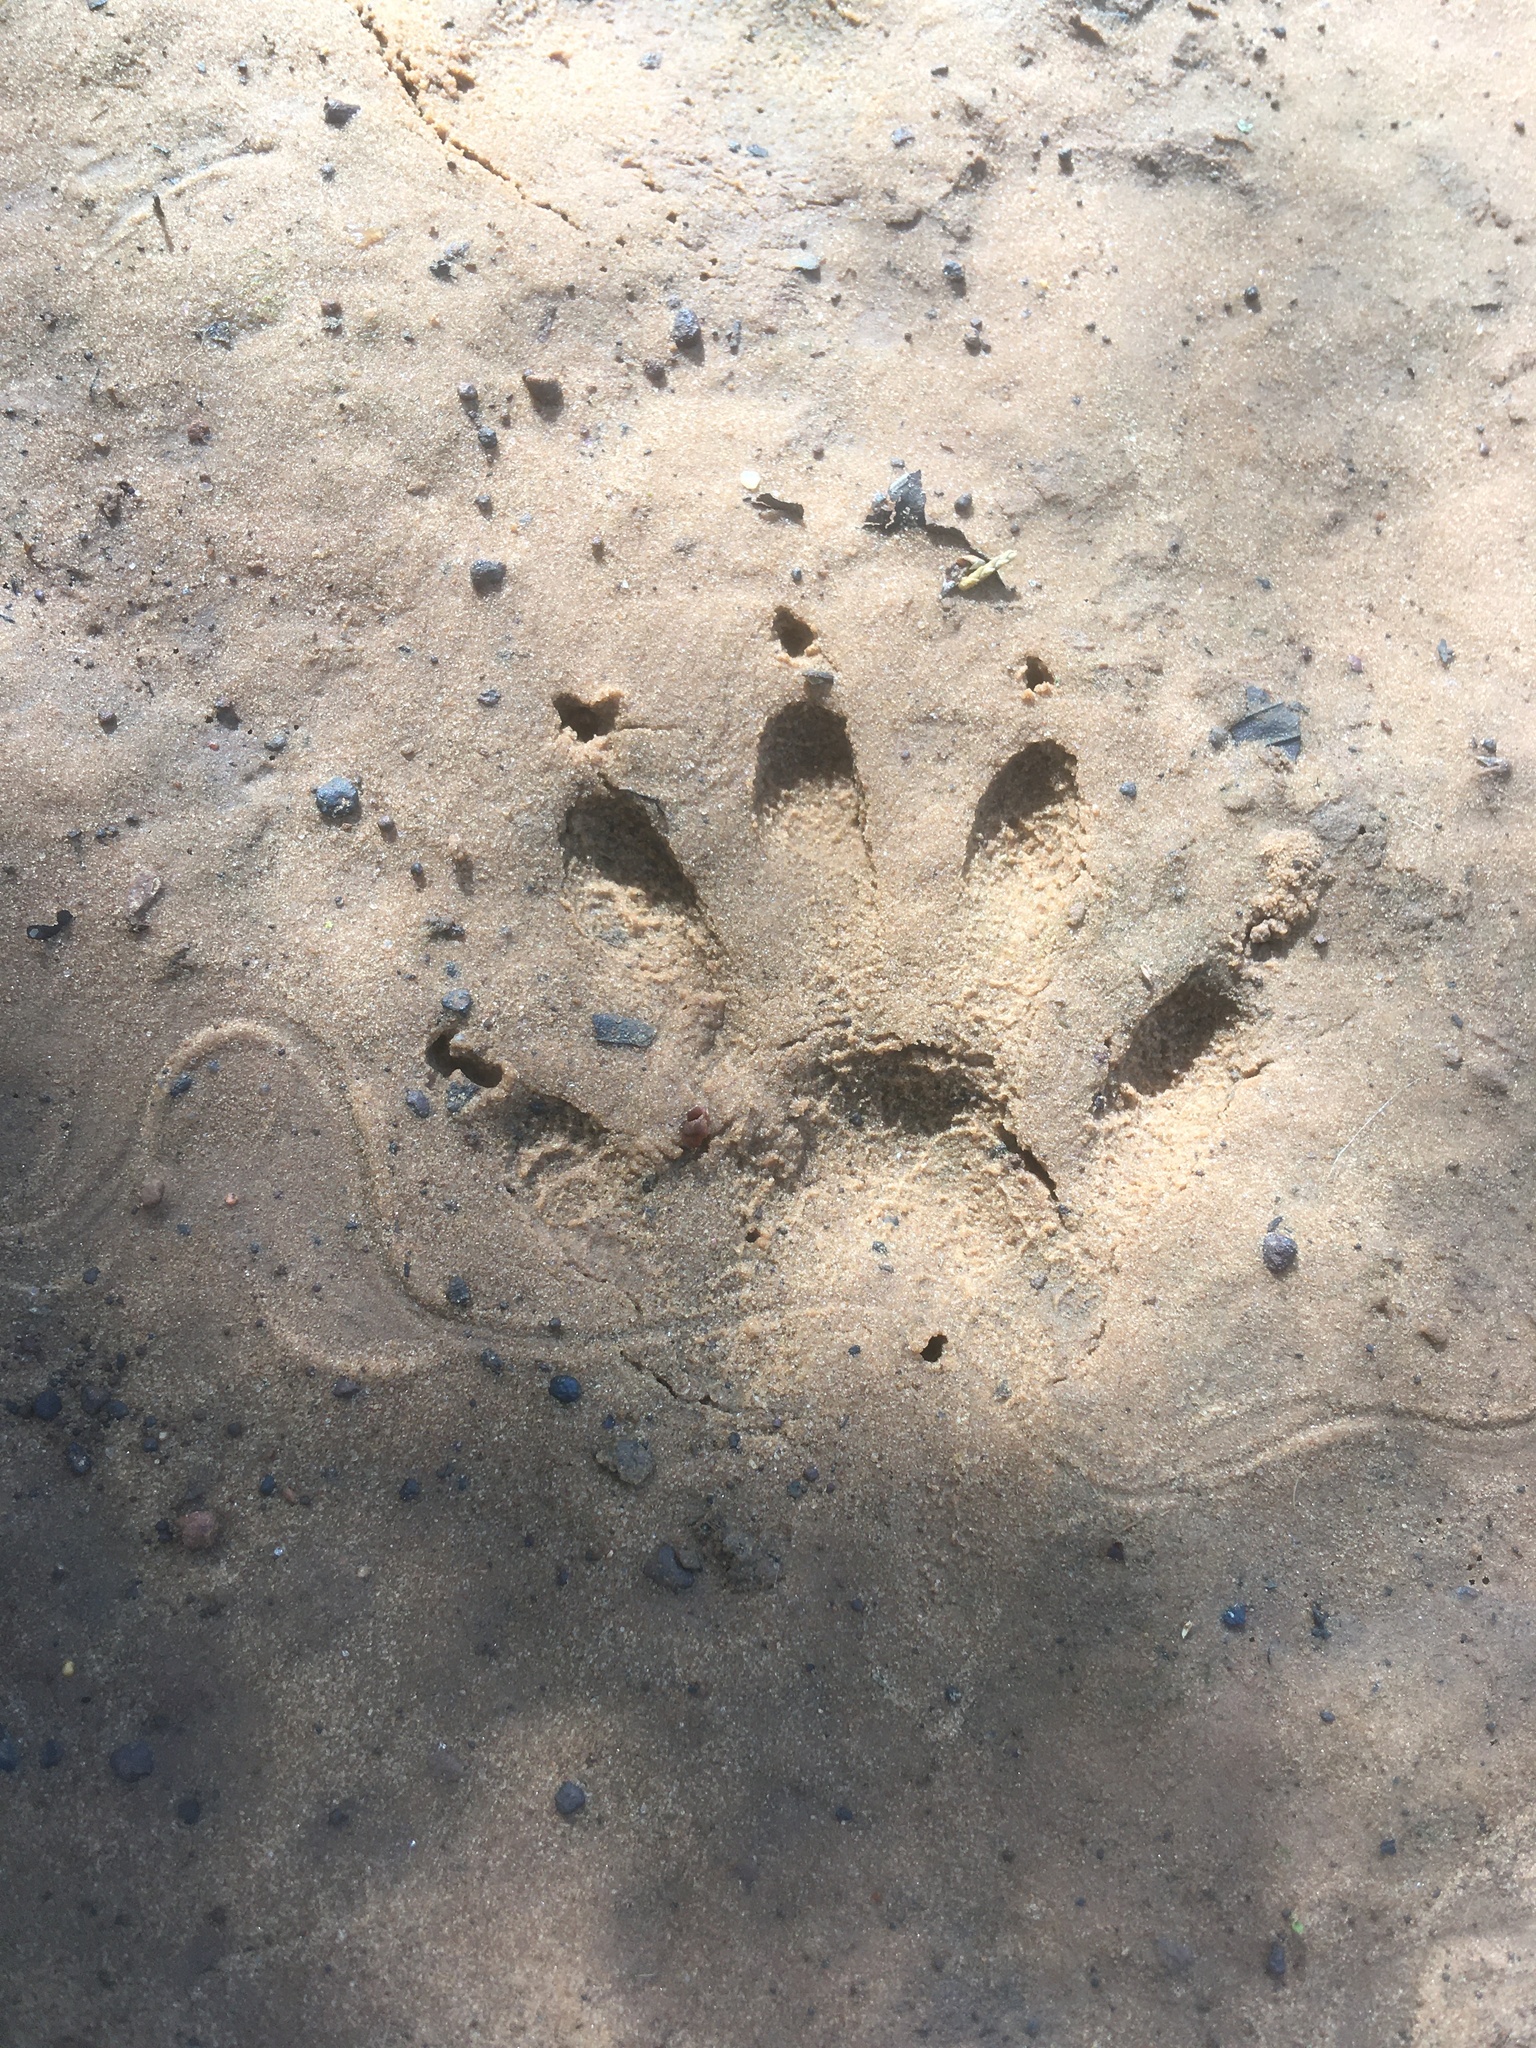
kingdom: Animalia
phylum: Chordata
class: Mammalia
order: Carnivora
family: Procyonidae
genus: Procyon
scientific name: Procyon lotor
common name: Raccoon
